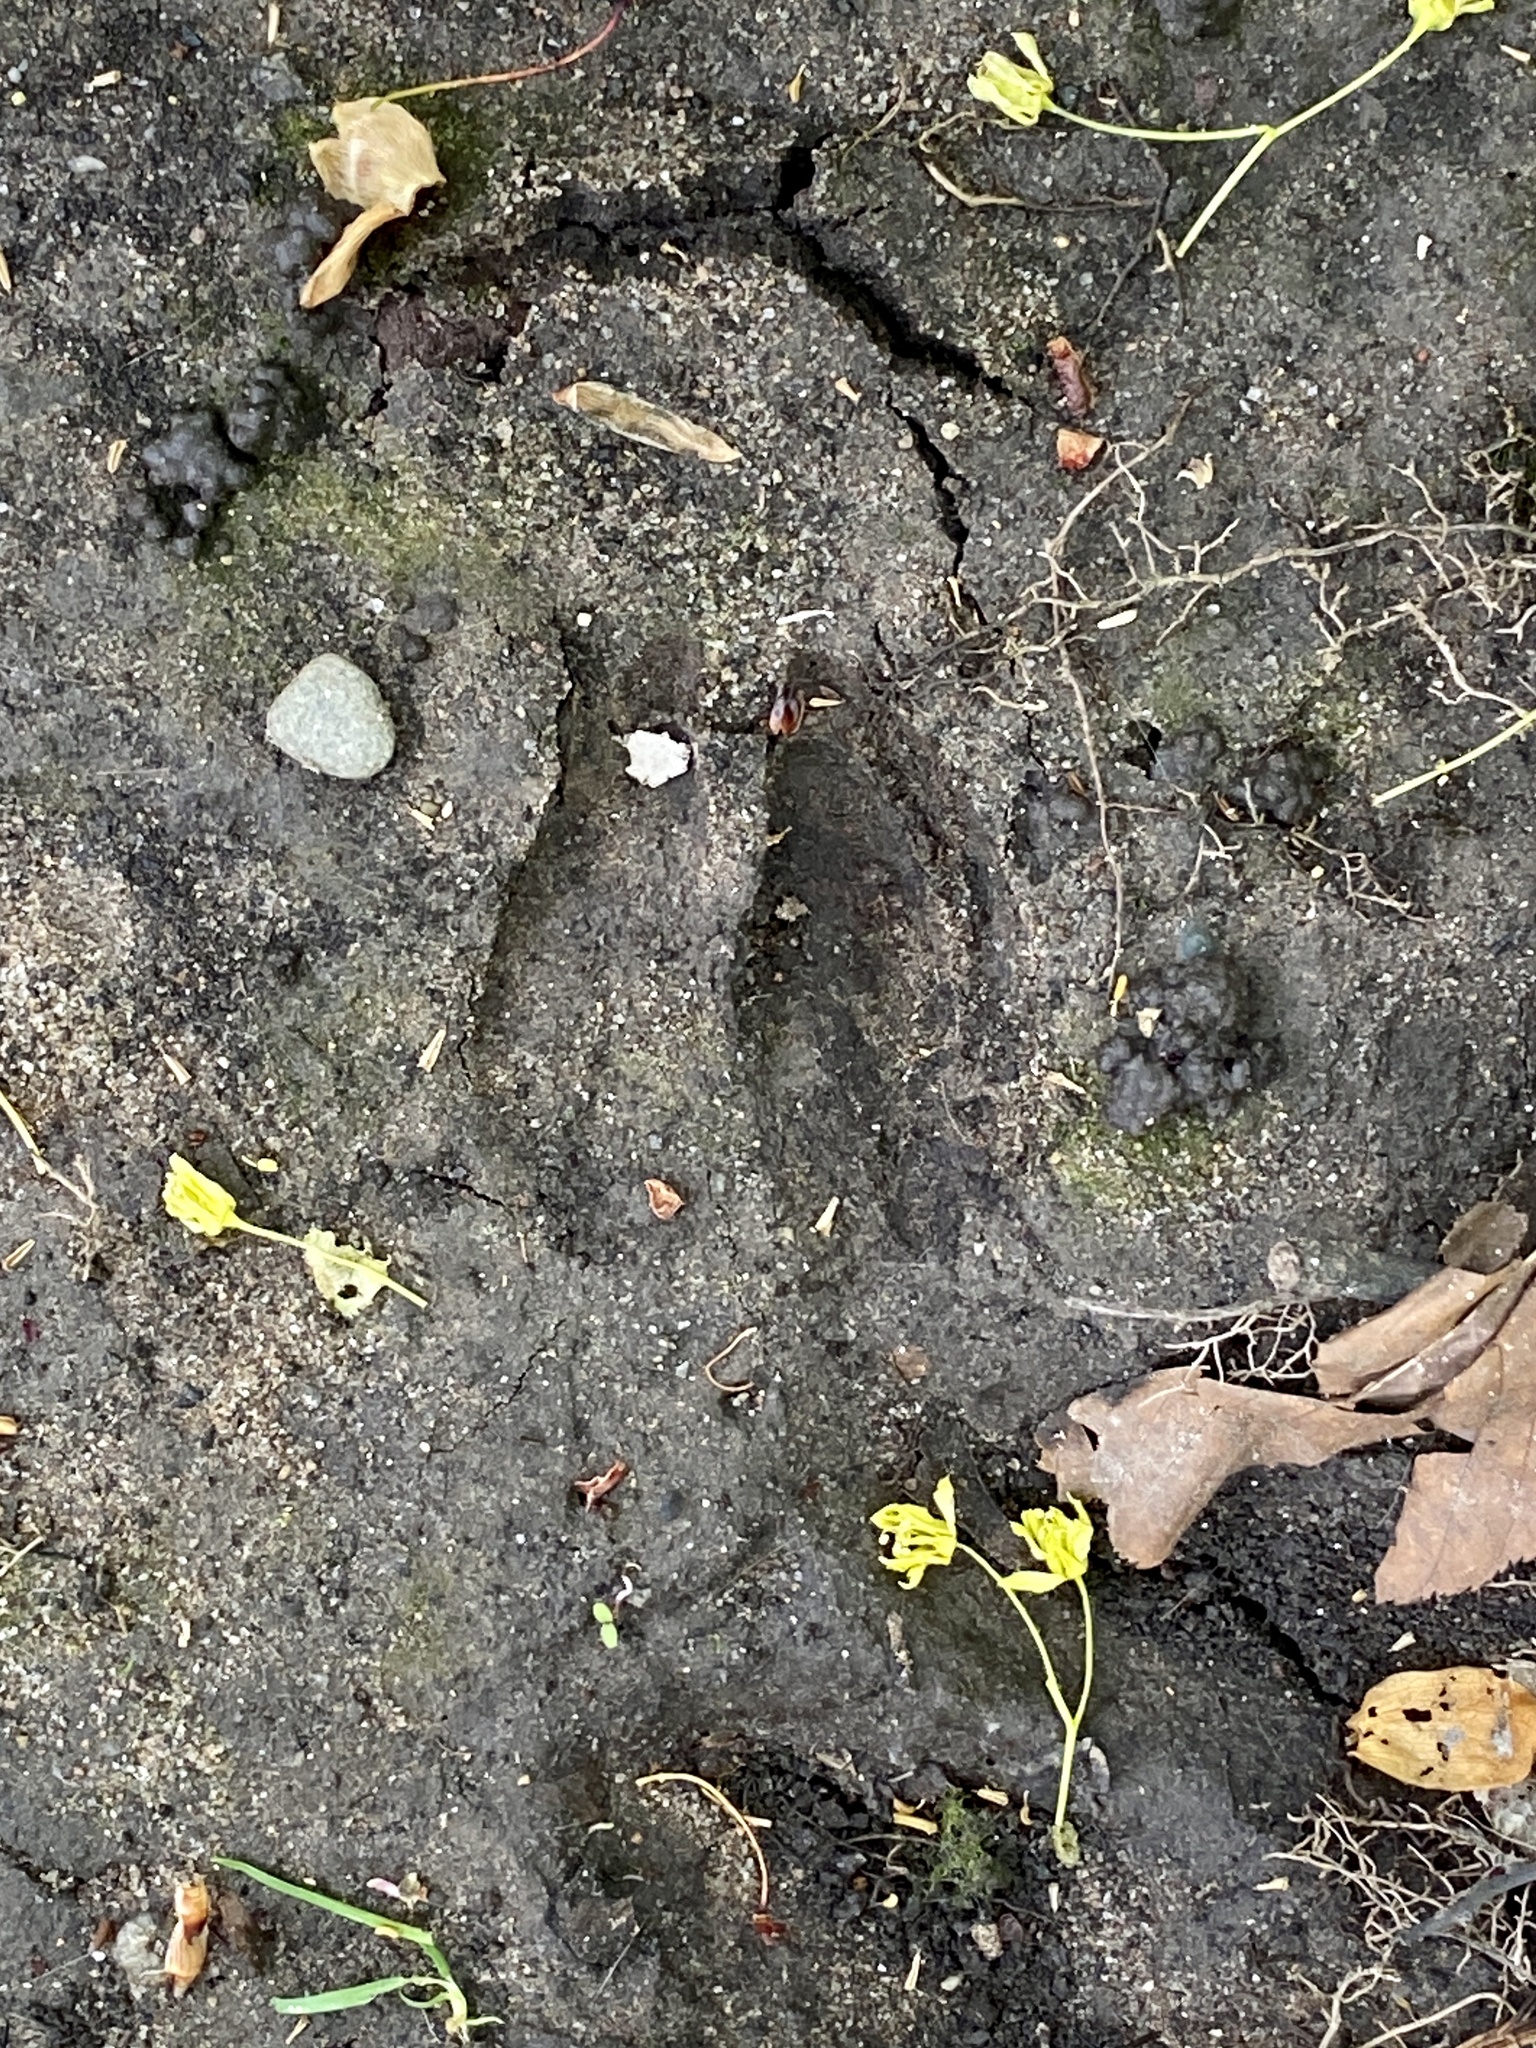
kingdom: Animalia
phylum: Chordata
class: Mammalia
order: Artiodactyla
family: Cervidae
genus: Odocoileus
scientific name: Odocoileus virginianus
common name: White-tailed deer
